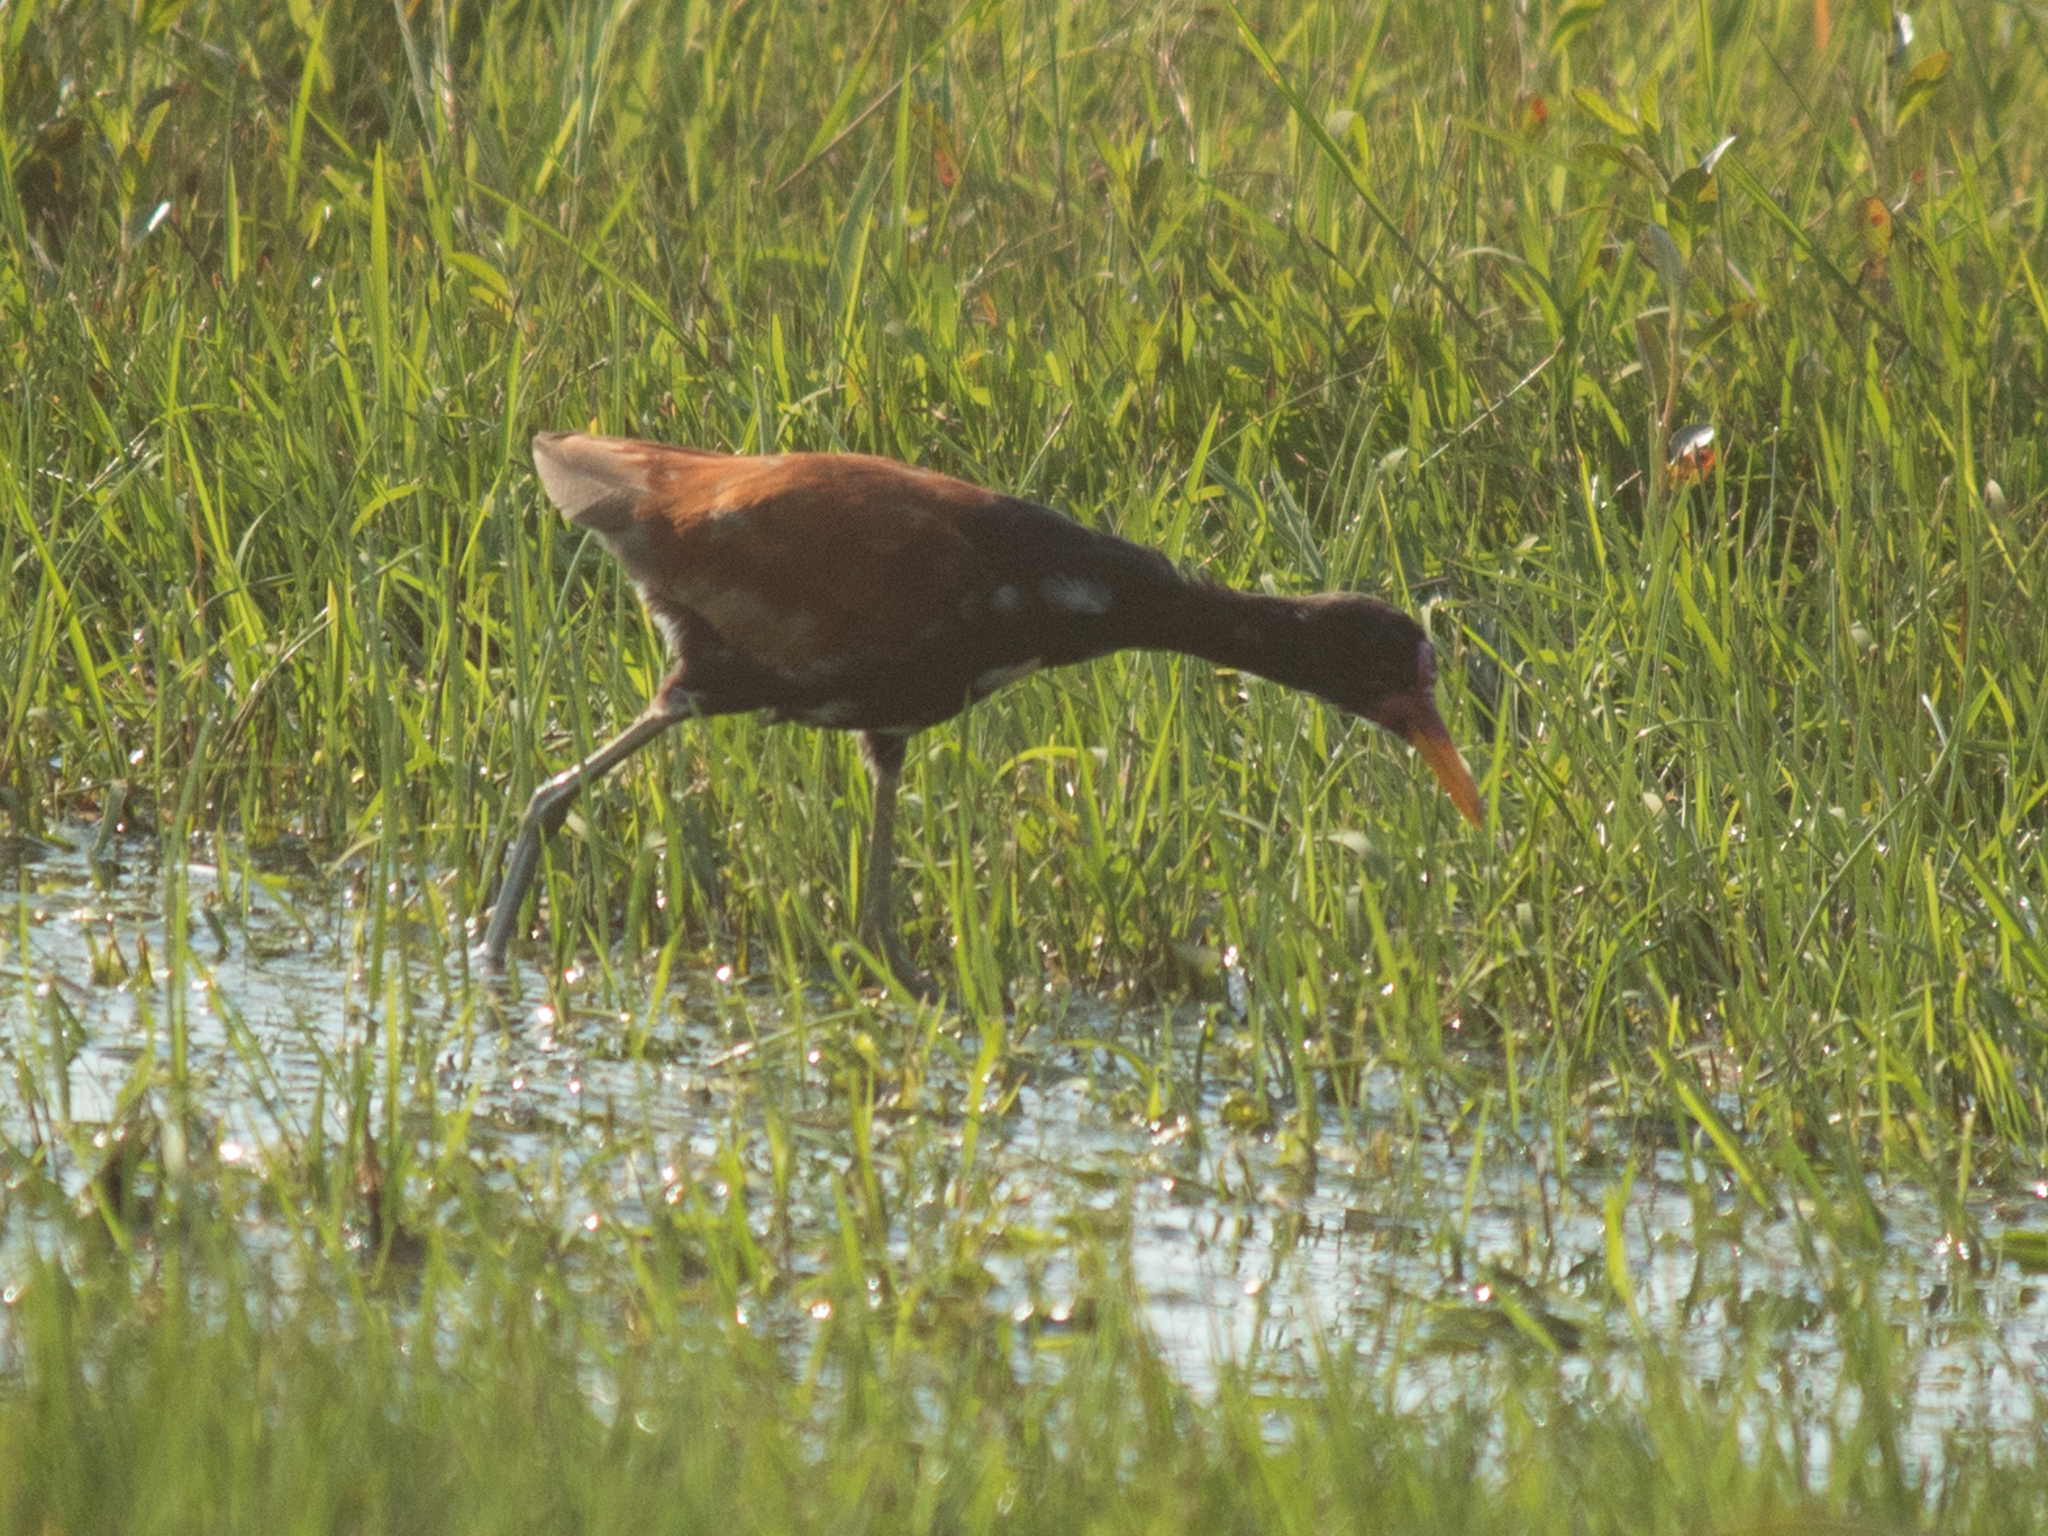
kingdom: Animalia
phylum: Chordata
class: Aves
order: Charadriiformes
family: Jacanidae
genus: Jacana
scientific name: Jacana jacana
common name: Wattled jacana
